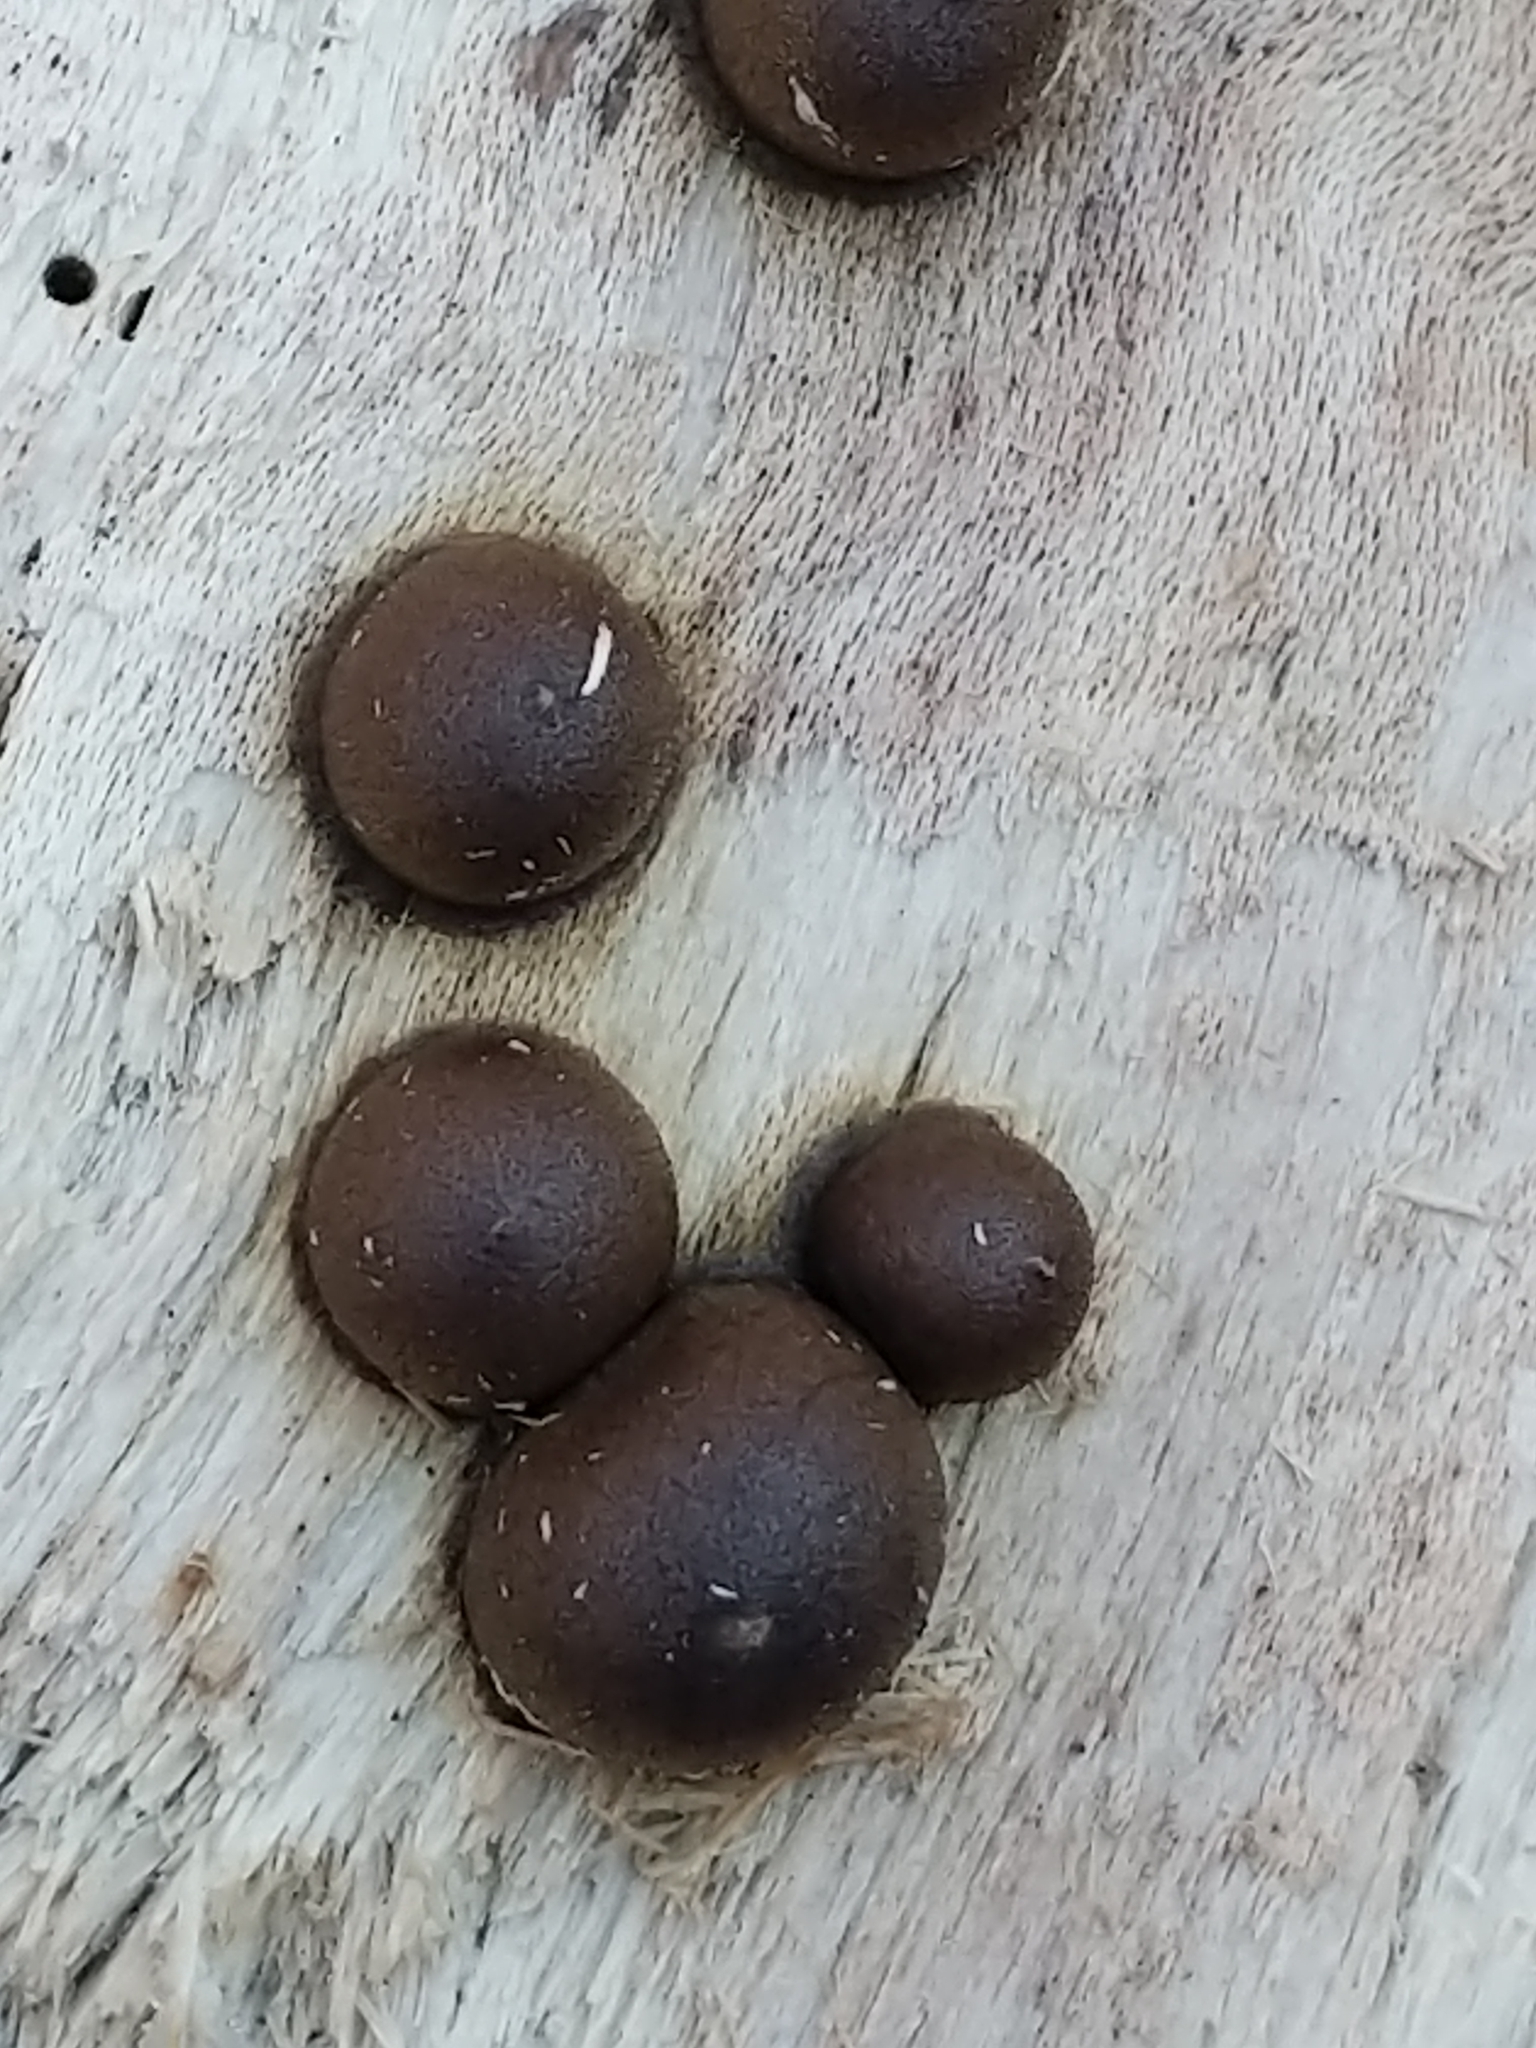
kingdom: Protozoa
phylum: Mycetozoa
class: Myxomycetes
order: Cribrariales
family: Tubiferaceae
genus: Lycogala
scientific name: Lycogala epidendrum
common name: Wolf's milk
